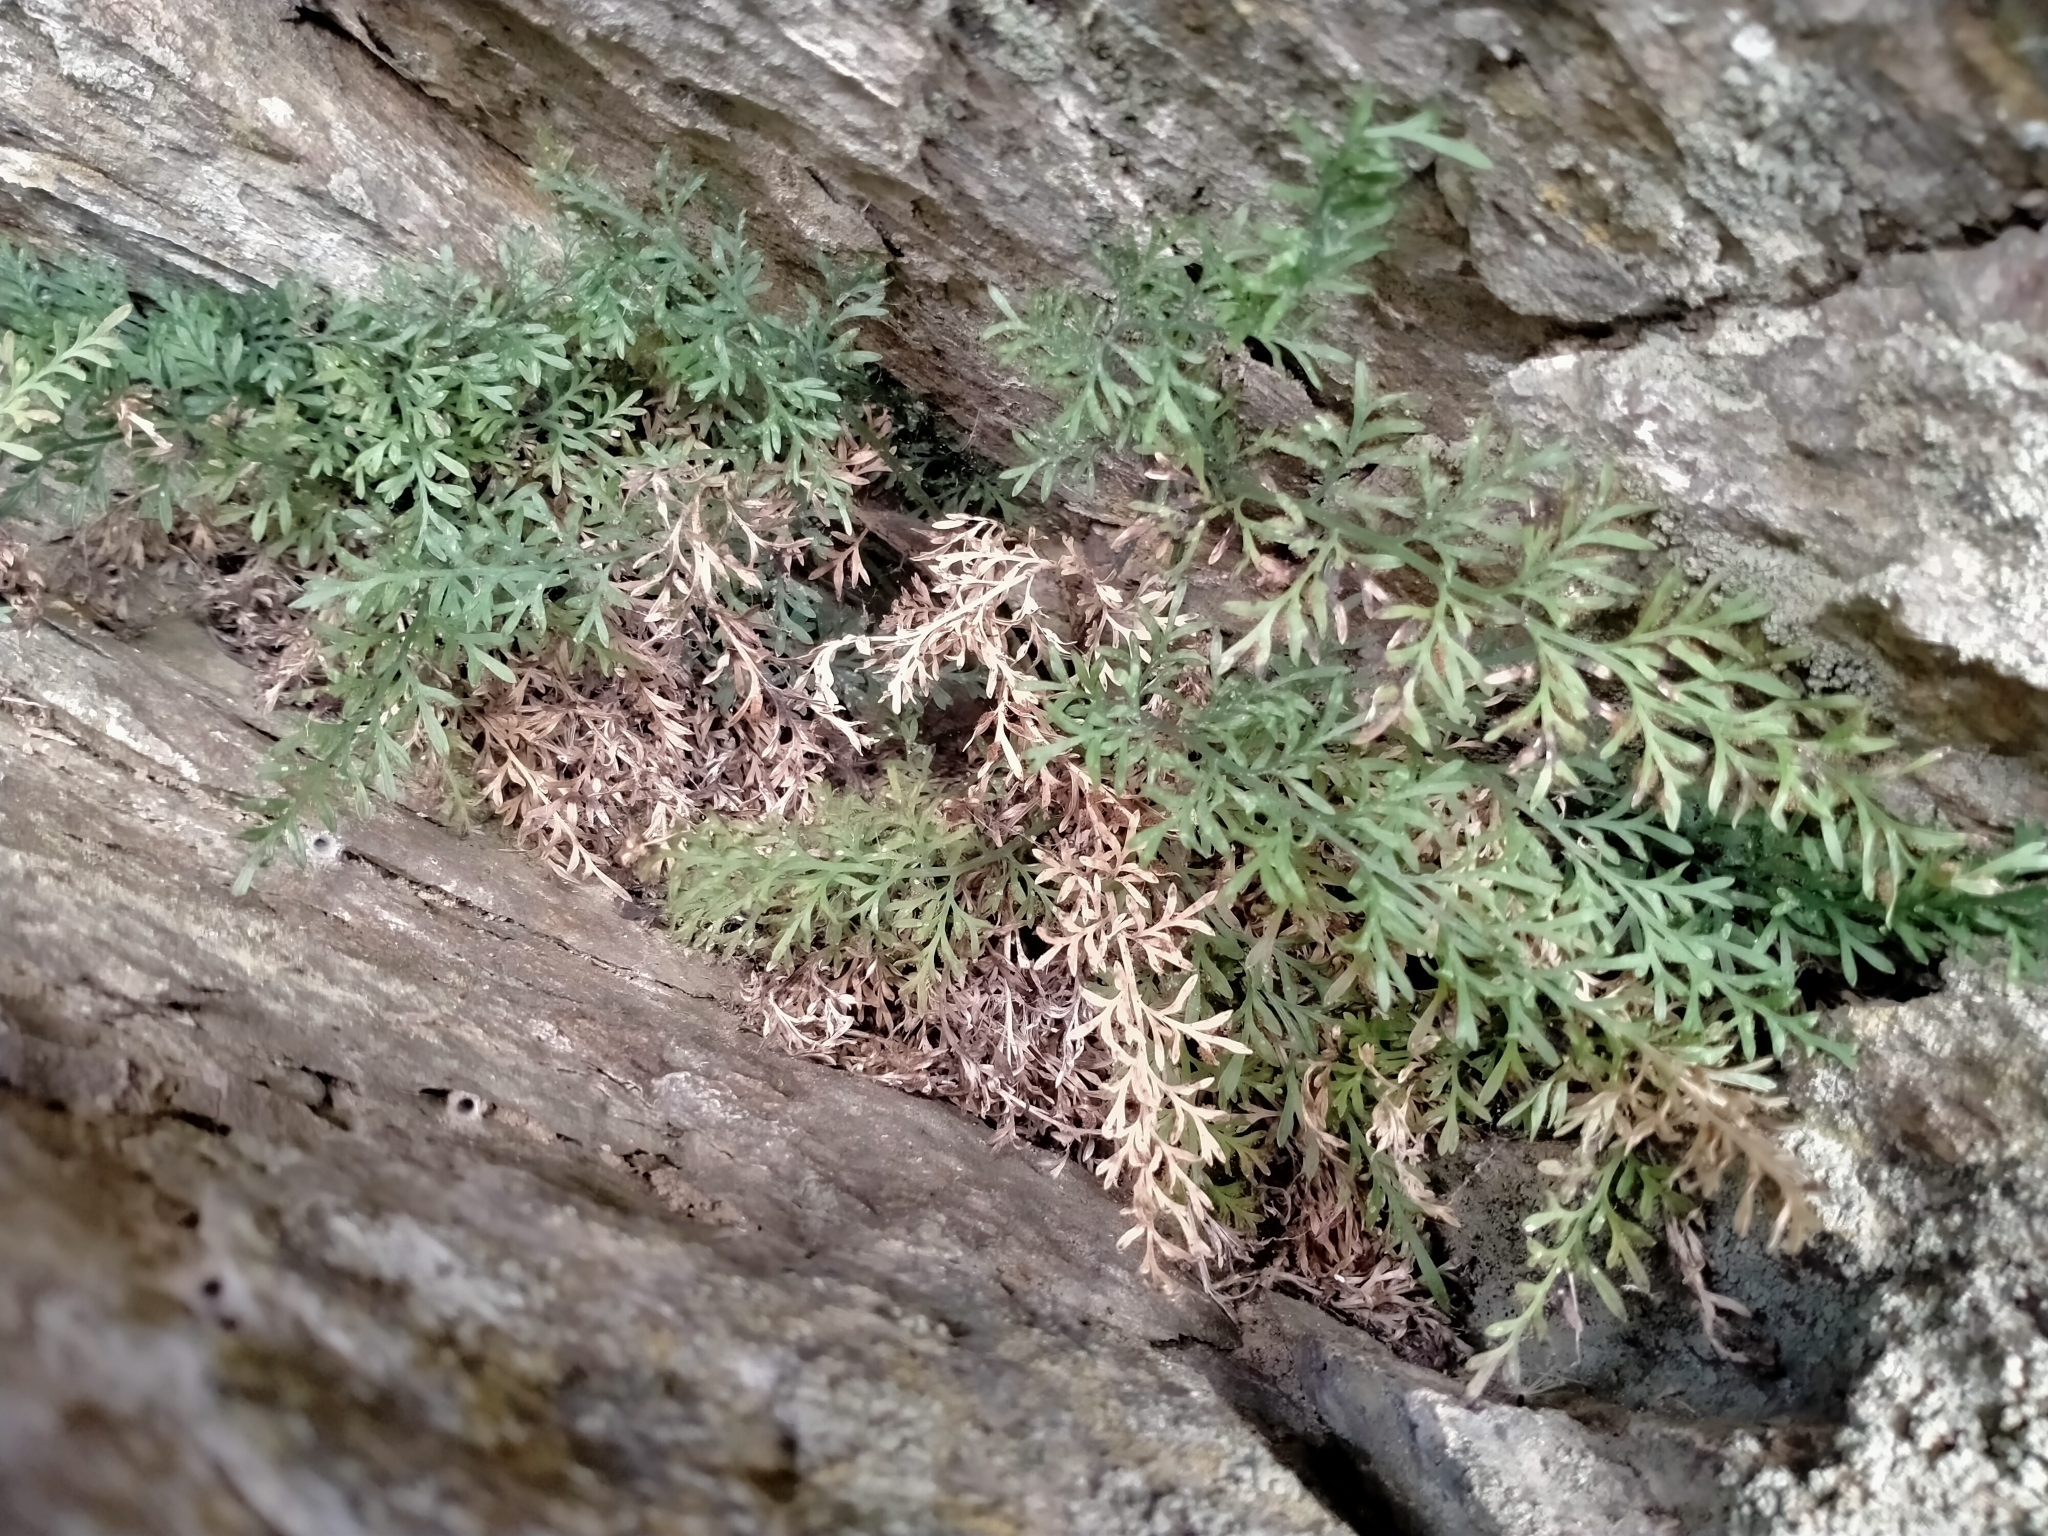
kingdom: Plantae
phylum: Tracheophyta
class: Polypodiopsida
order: Polypodiales
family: Aspleniaceae
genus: Asplenium
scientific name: Asplenium richardii
